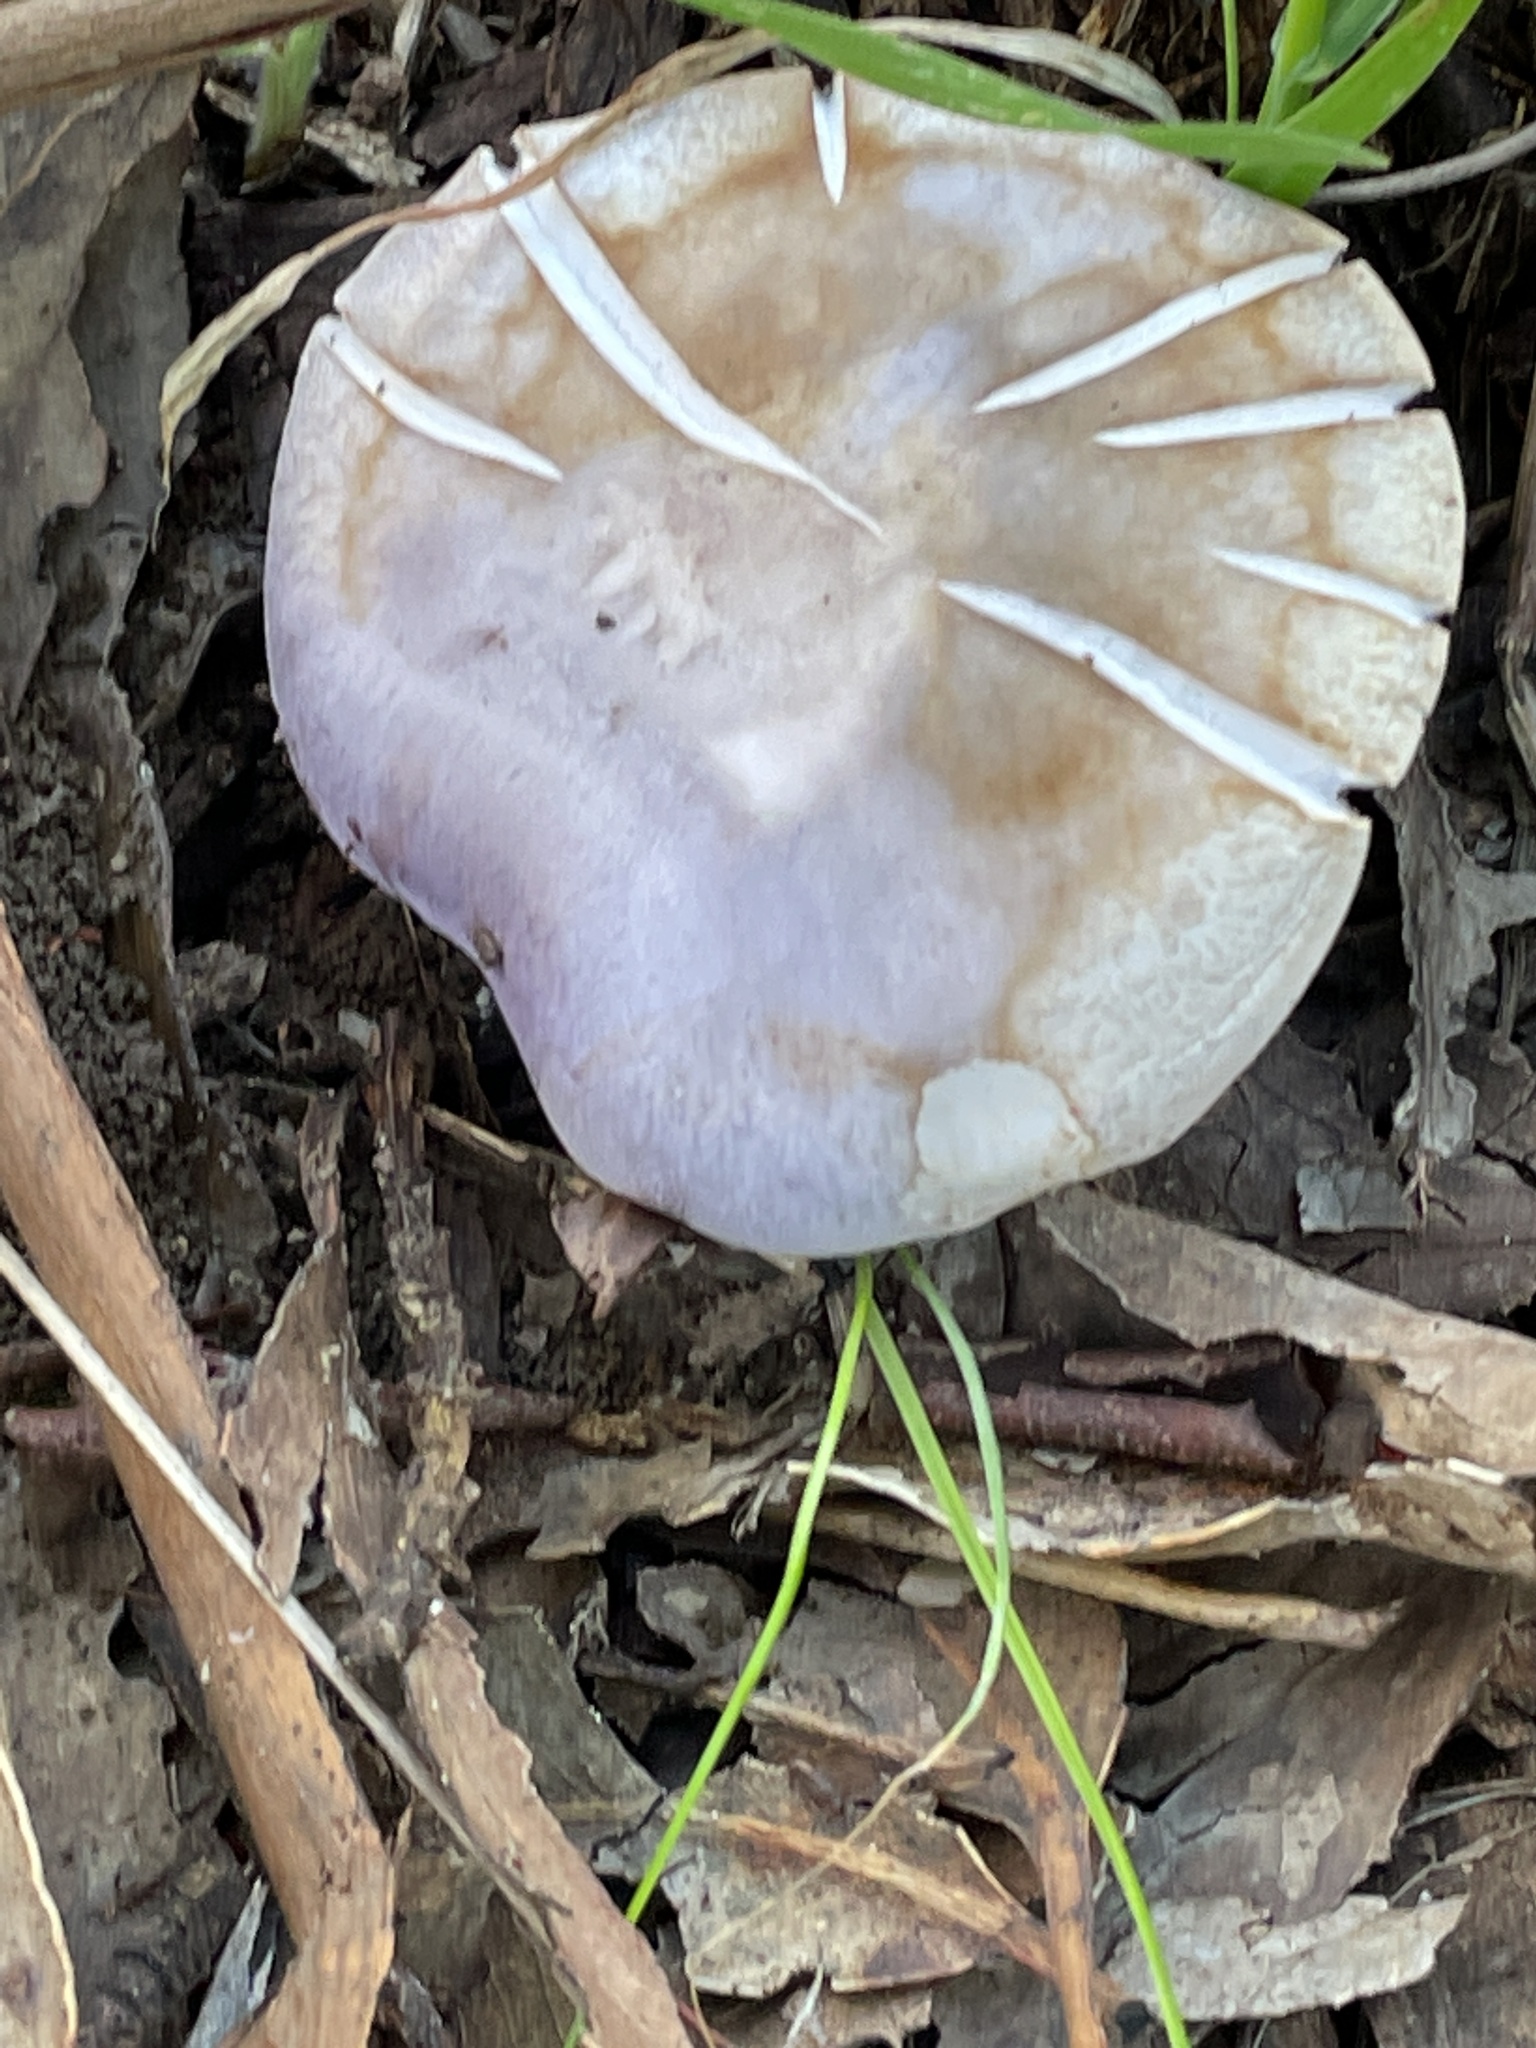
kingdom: Fungi
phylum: Basidiomycota
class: Agaricomycetes
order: Agaricales
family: Tricholomataceae
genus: Collybia
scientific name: Collybia
